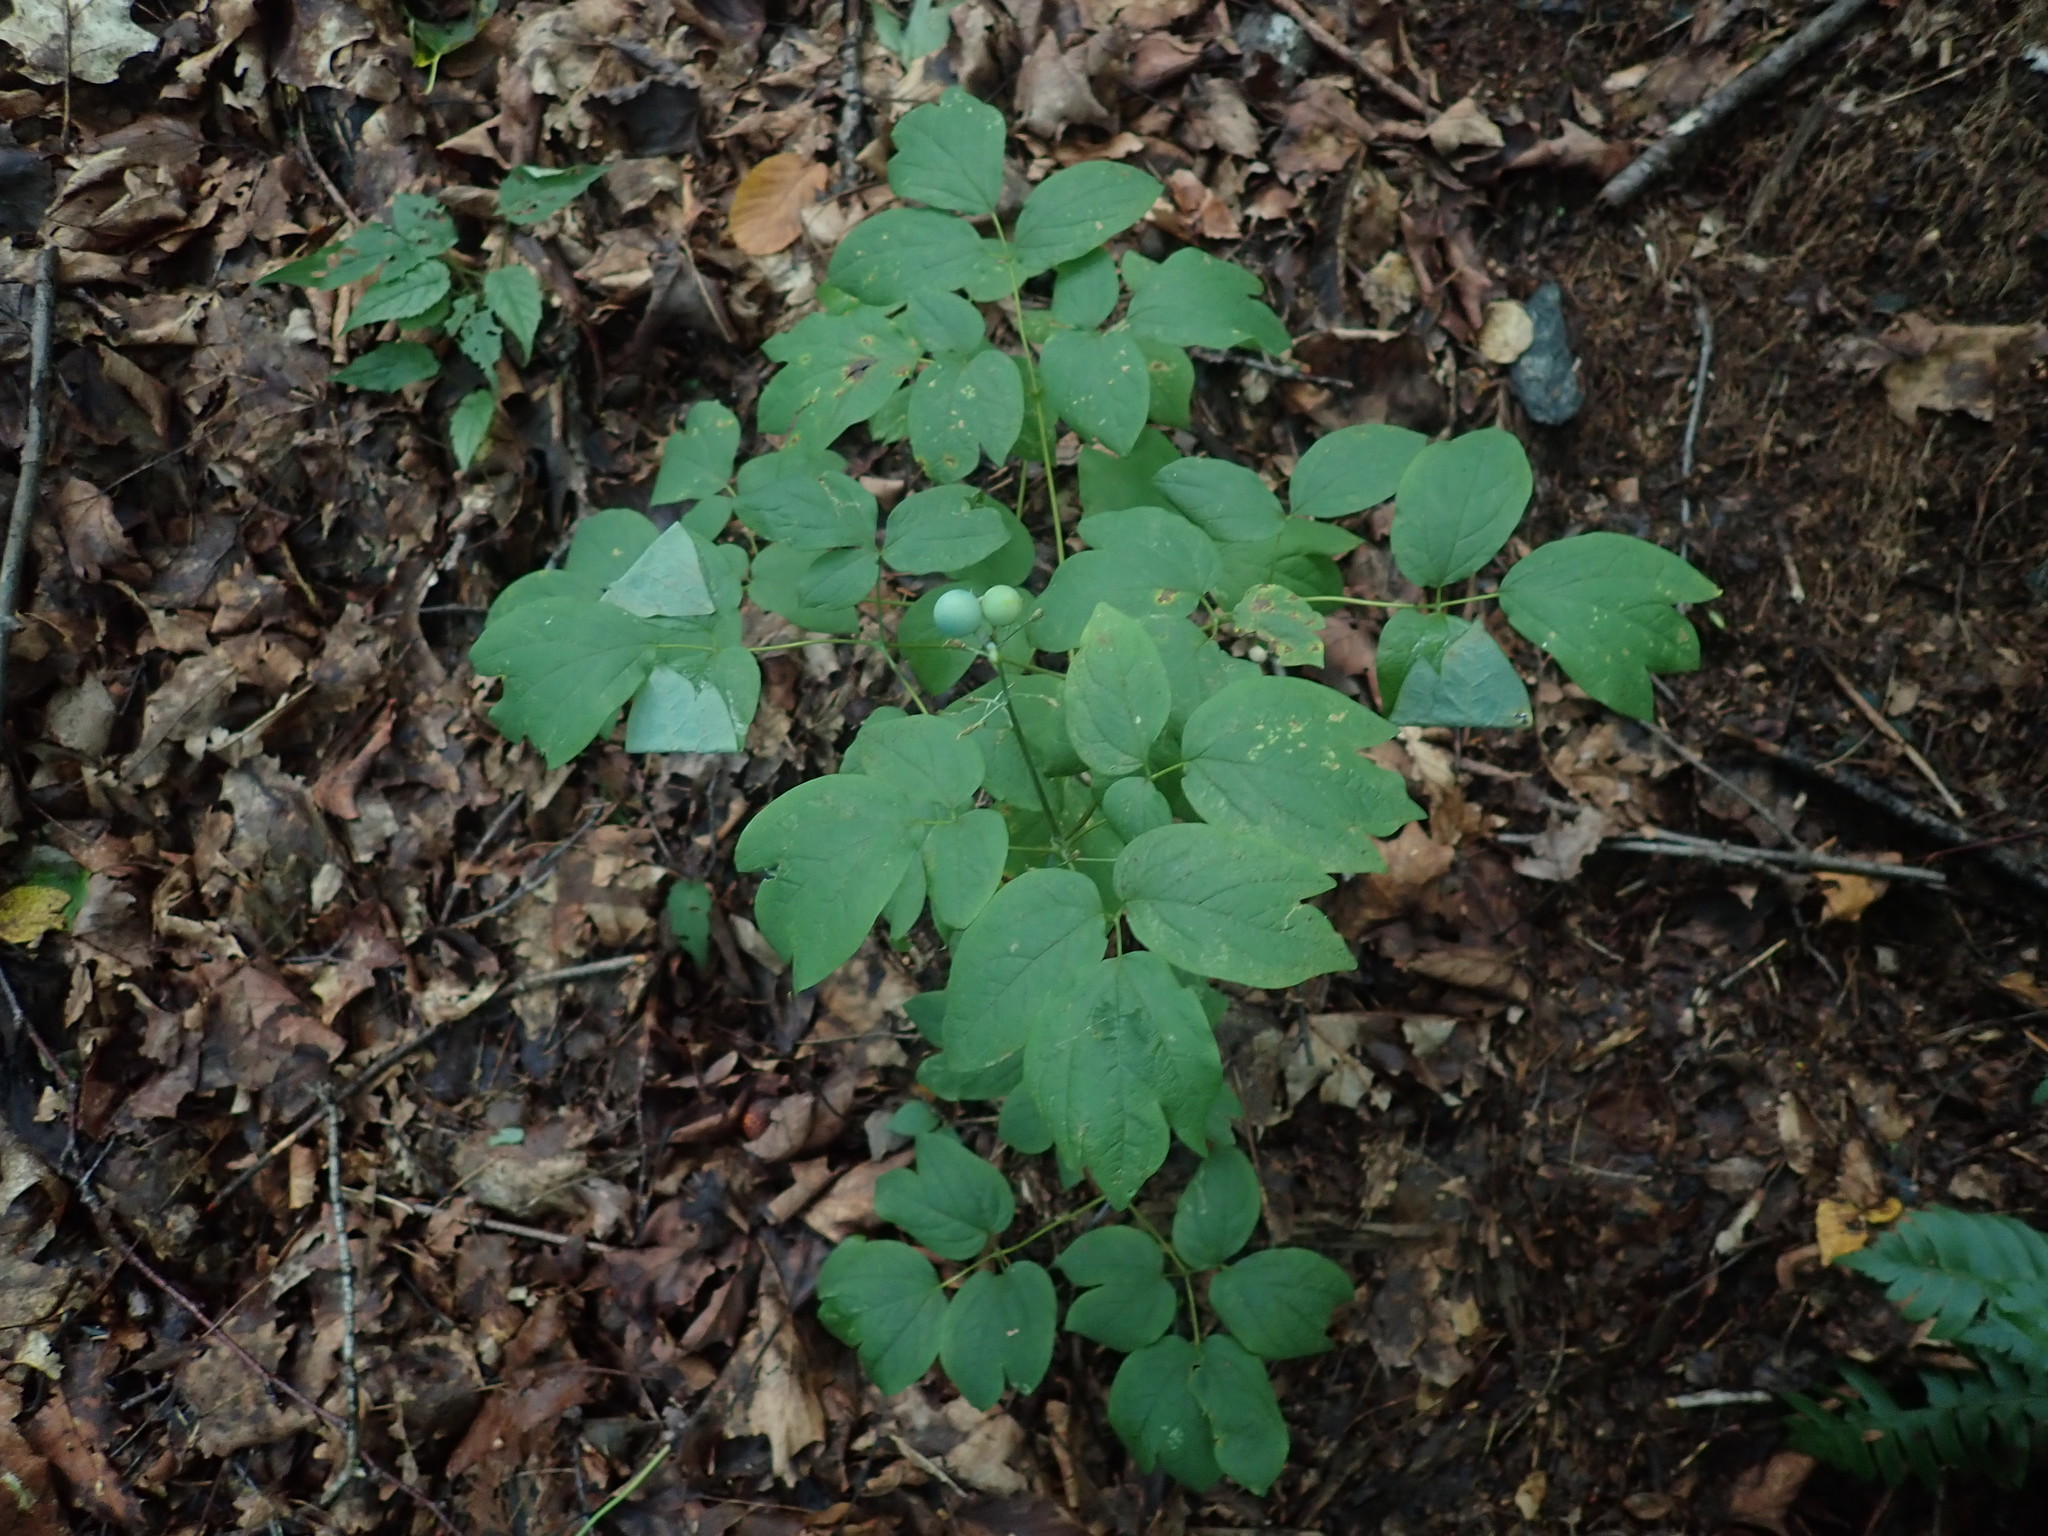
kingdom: Plantae
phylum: Tracheophyta
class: Magnoliopsida
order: Ranunculales
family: Berberidaceae
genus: Caulophyllum
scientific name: Caulophyllum
